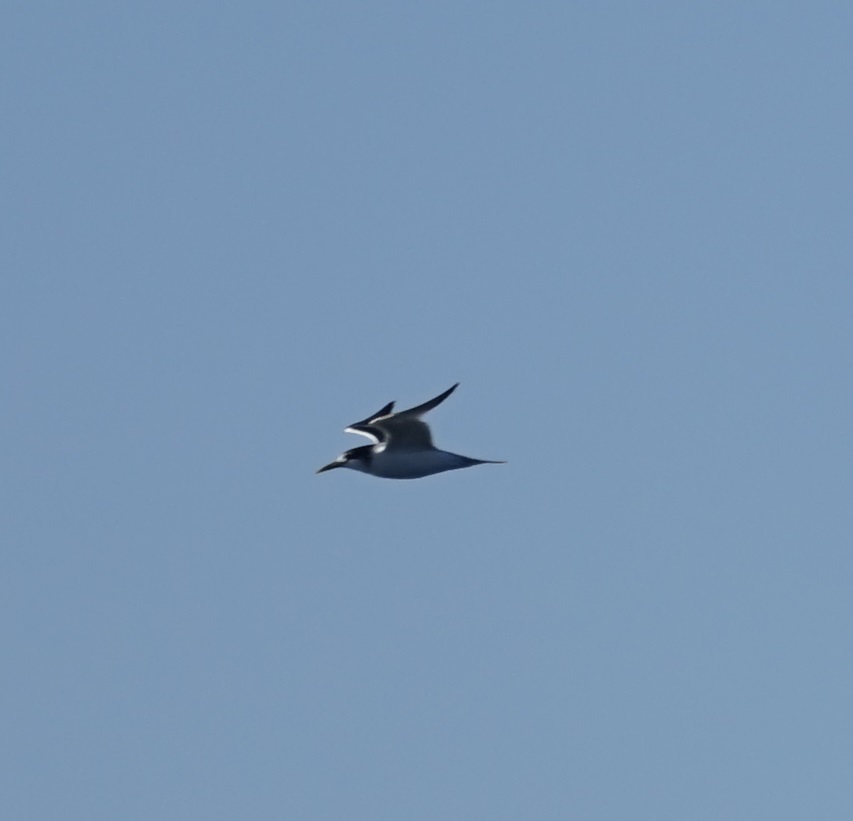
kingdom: Animalia
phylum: Chordata
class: Aves
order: Charadriiformes
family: Laridae
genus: Thalasseus
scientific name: Thalasseus bergii
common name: Greater crested tern
